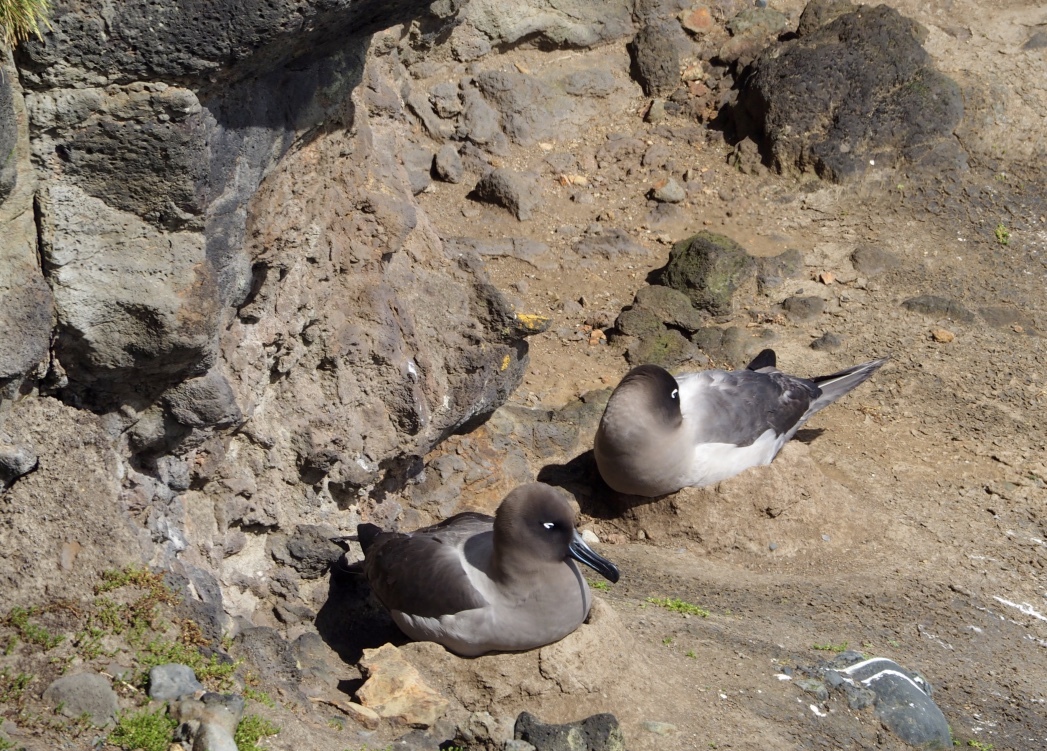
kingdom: Animalia
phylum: Chordata
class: Aves
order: Procellariiformes
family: Diomedeidae
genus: Phoebetria
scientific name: Phoebetria palpebrata
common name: Light-mantled albatross
